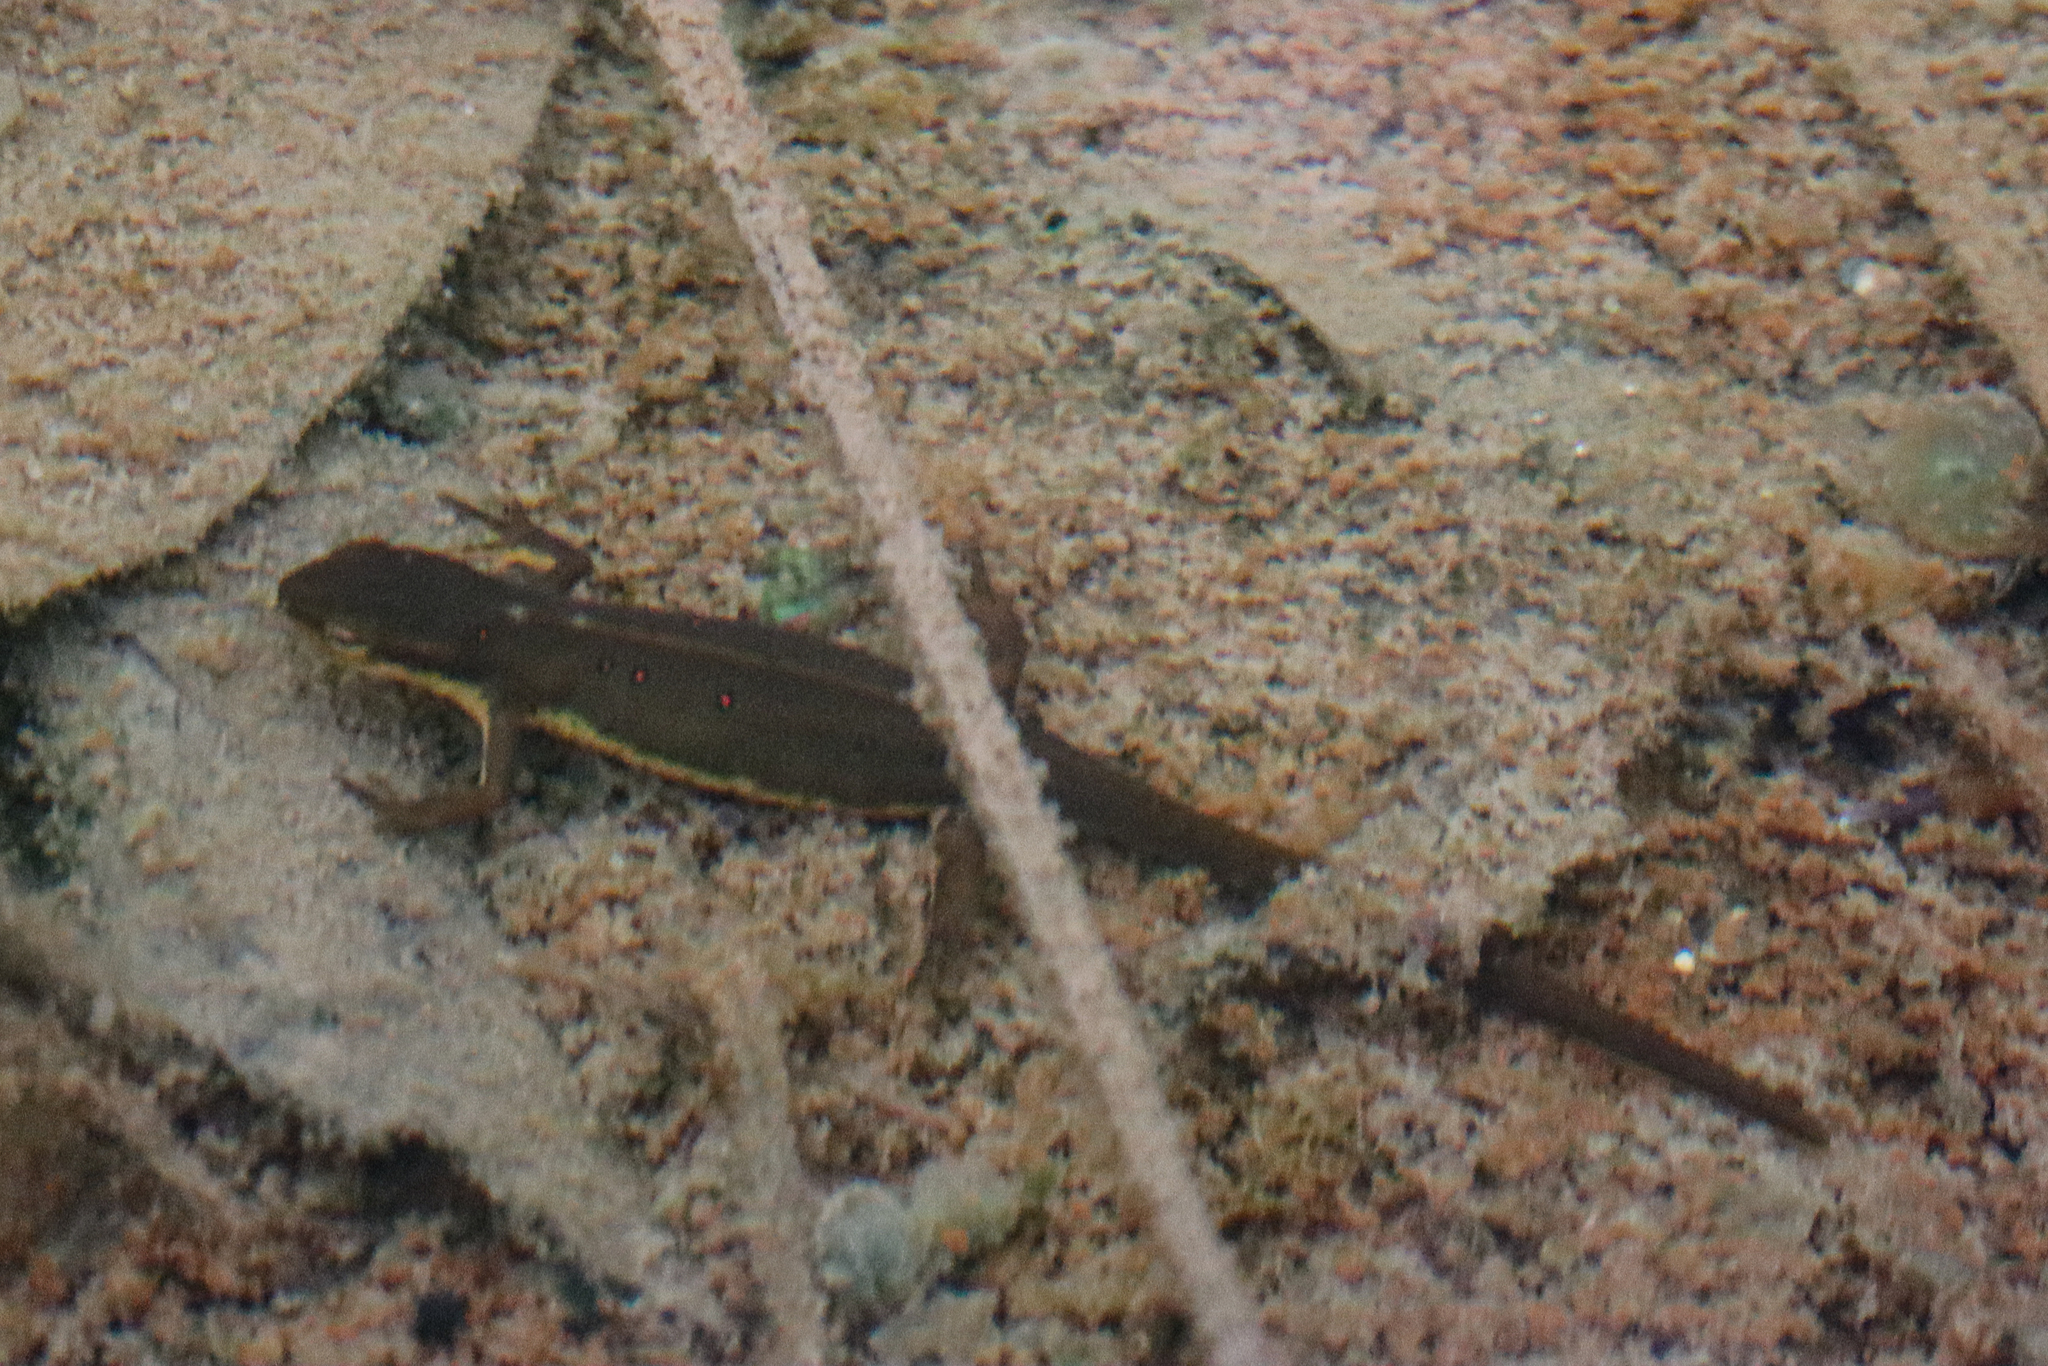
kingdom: Animalia
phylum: Chordata
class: Amphibia
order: Caudata
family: Salamandridae
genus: Notophthalmus
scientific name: Notophthalmus viridescens
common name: Eastern newt
